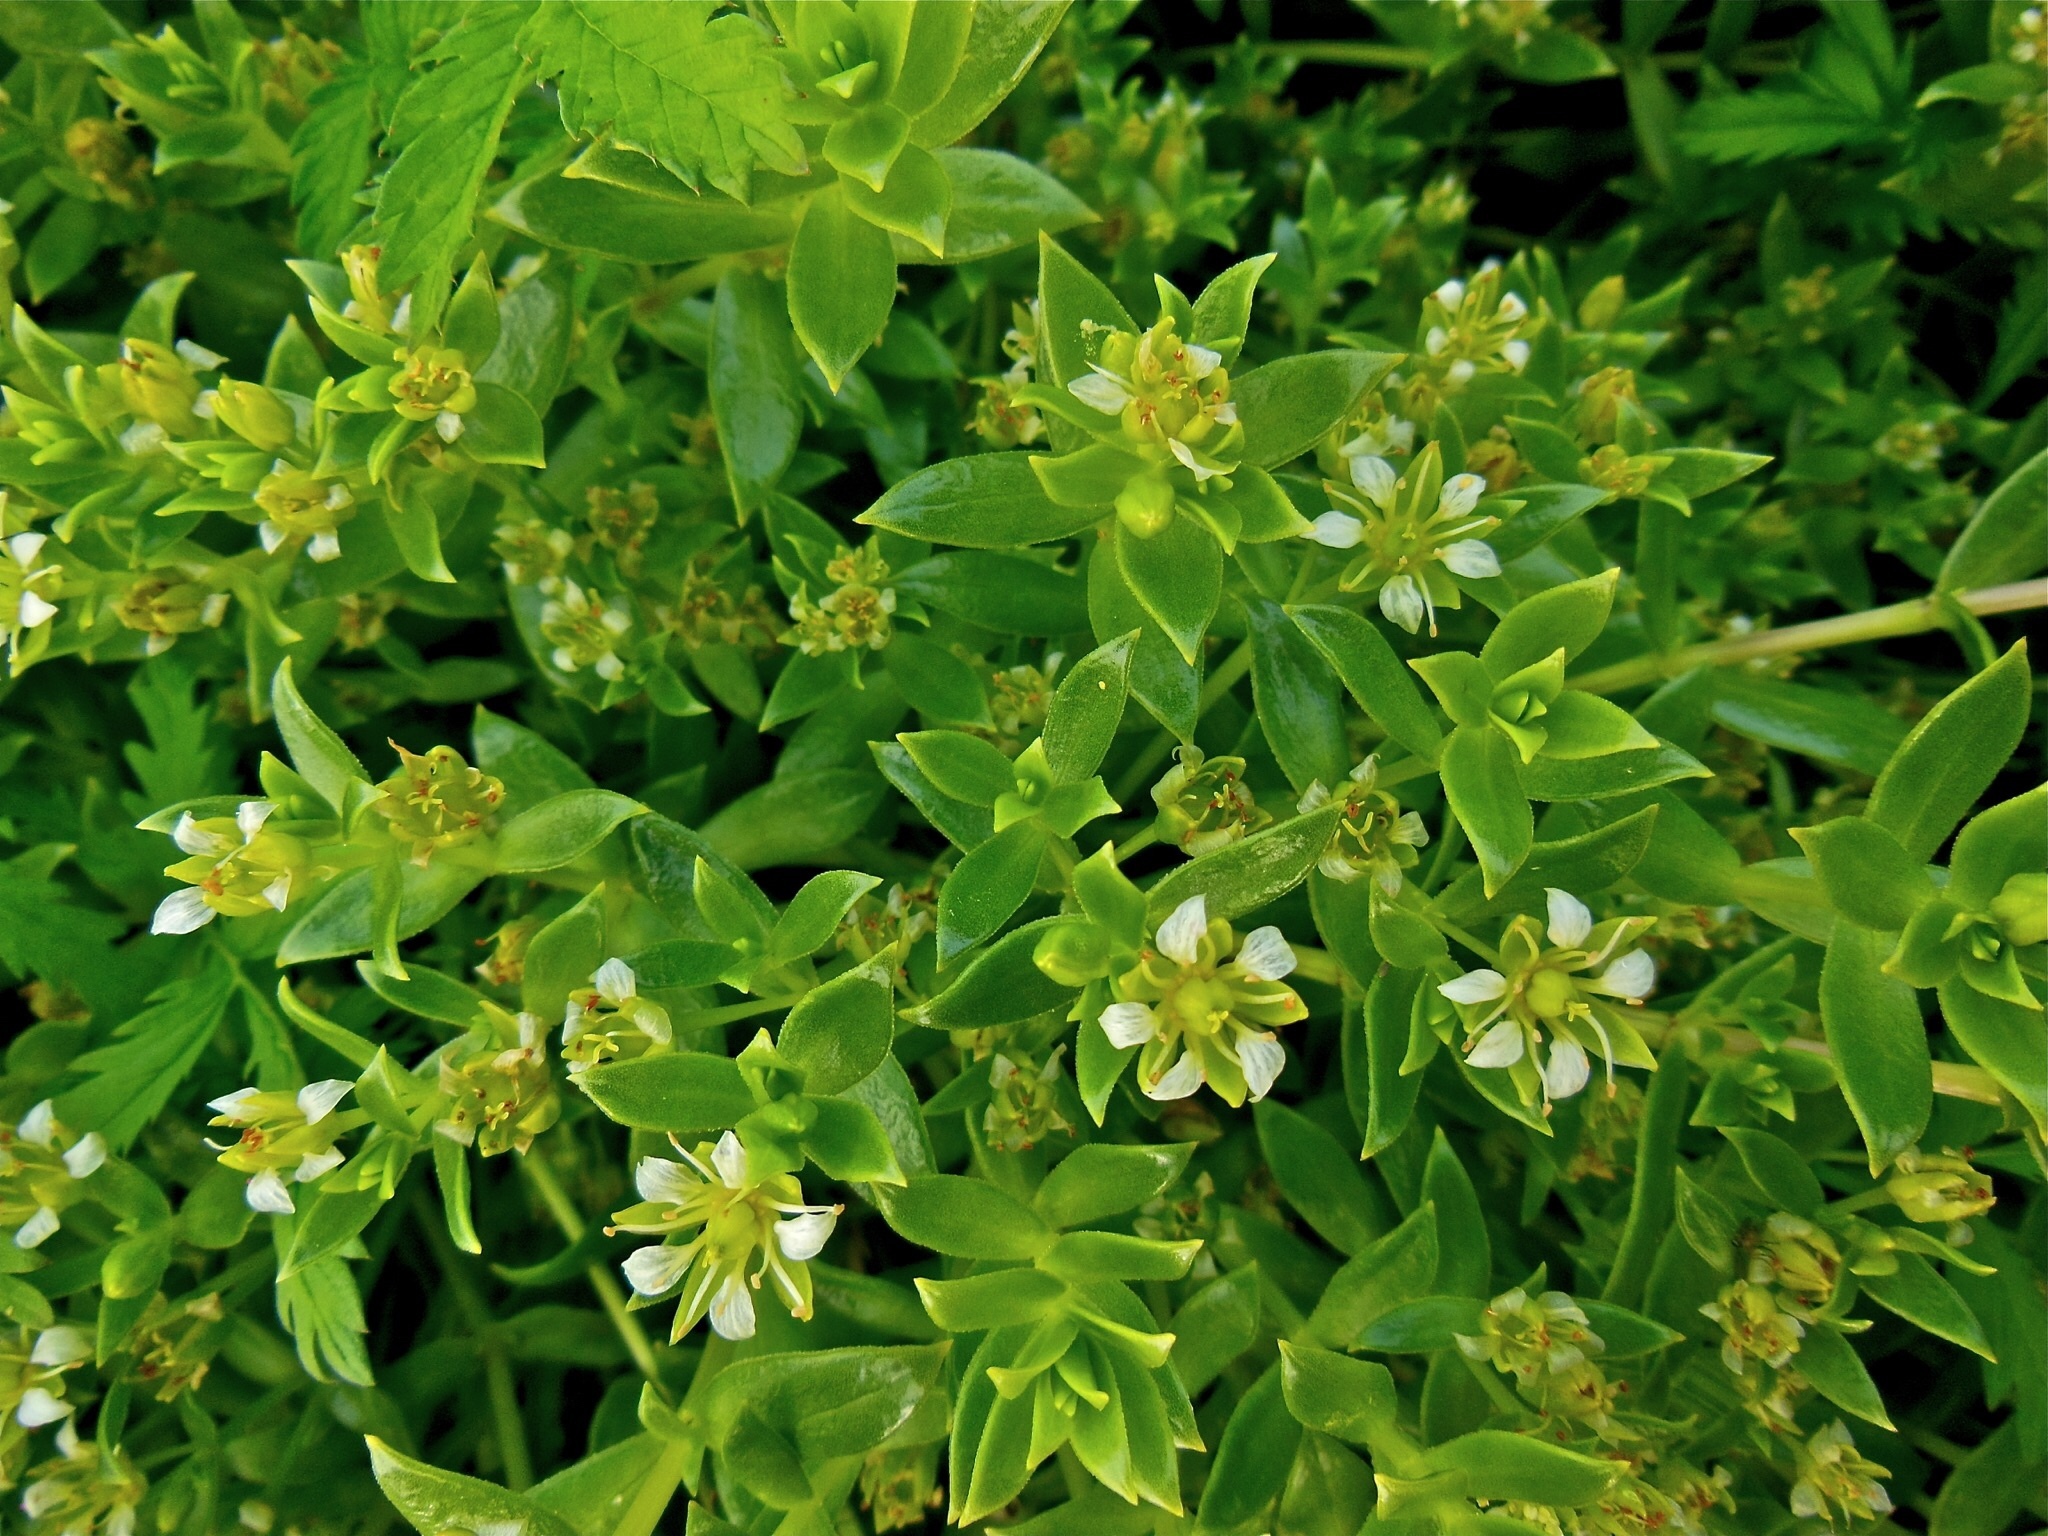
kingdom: Plantae
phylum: Tracheophyta
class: Magnoliopsida
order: Caryophyllales
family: Caryophyllaceae
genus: Honckenya
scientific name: Honckenya peploides
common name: Sea sandwort
